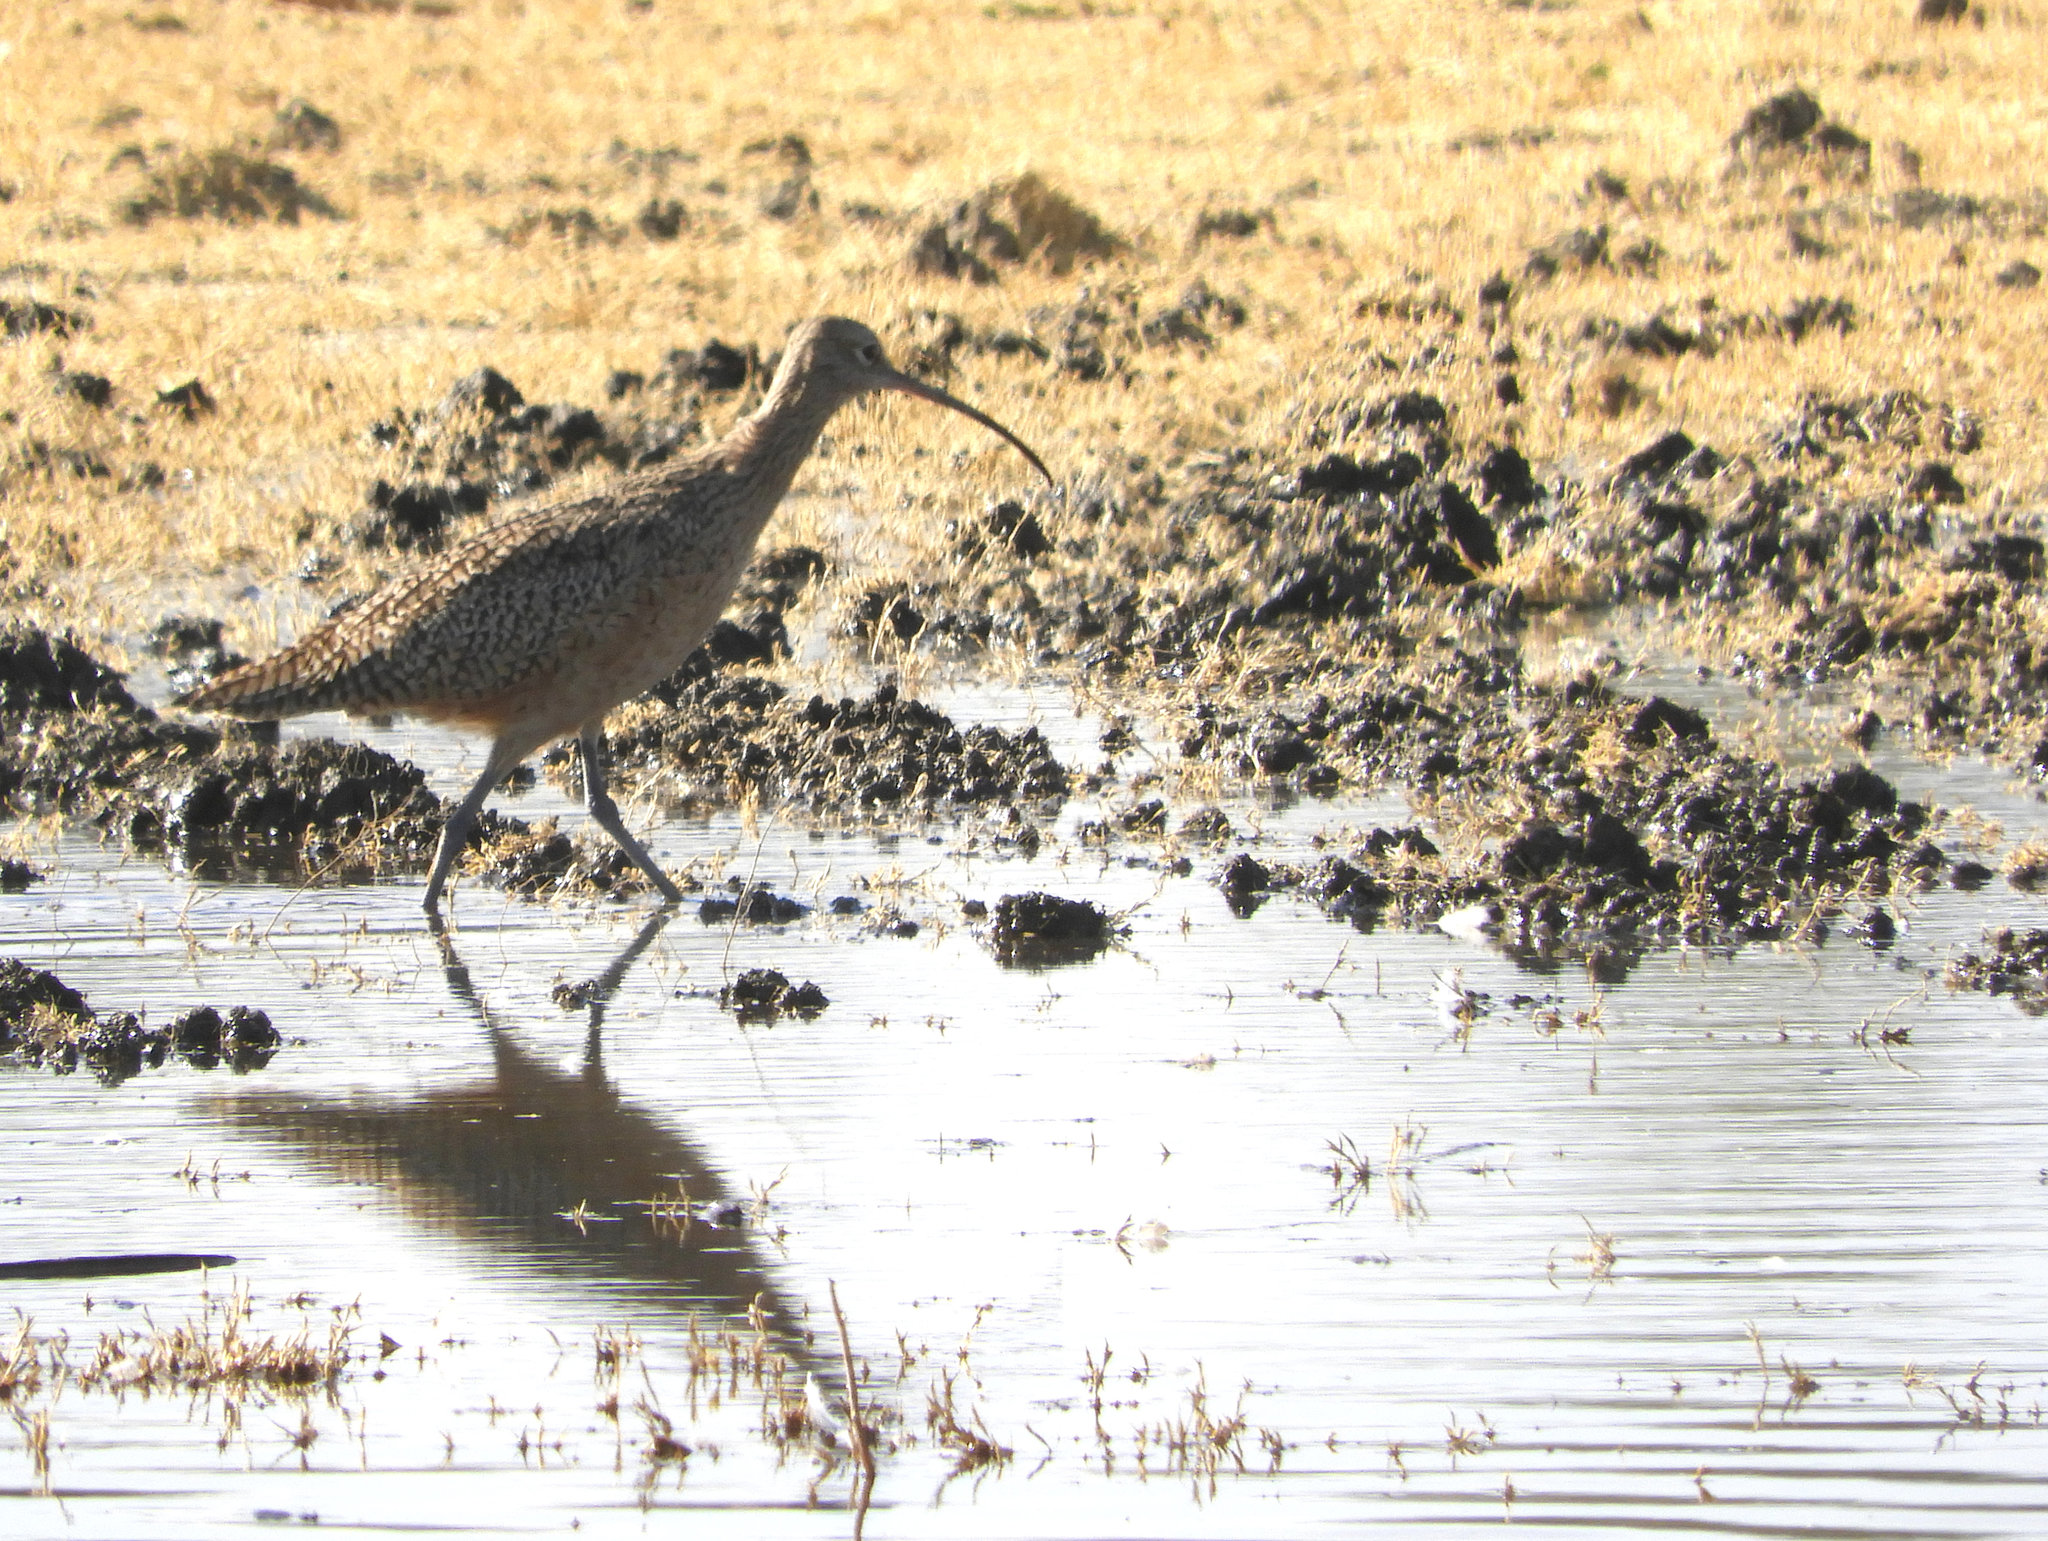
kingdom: Animalia
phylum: Chordata
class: Aves
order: Charadriiformes
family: Scolopacidae
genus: Numenius
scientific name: Numenius americanus
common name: Long-billed curlew
